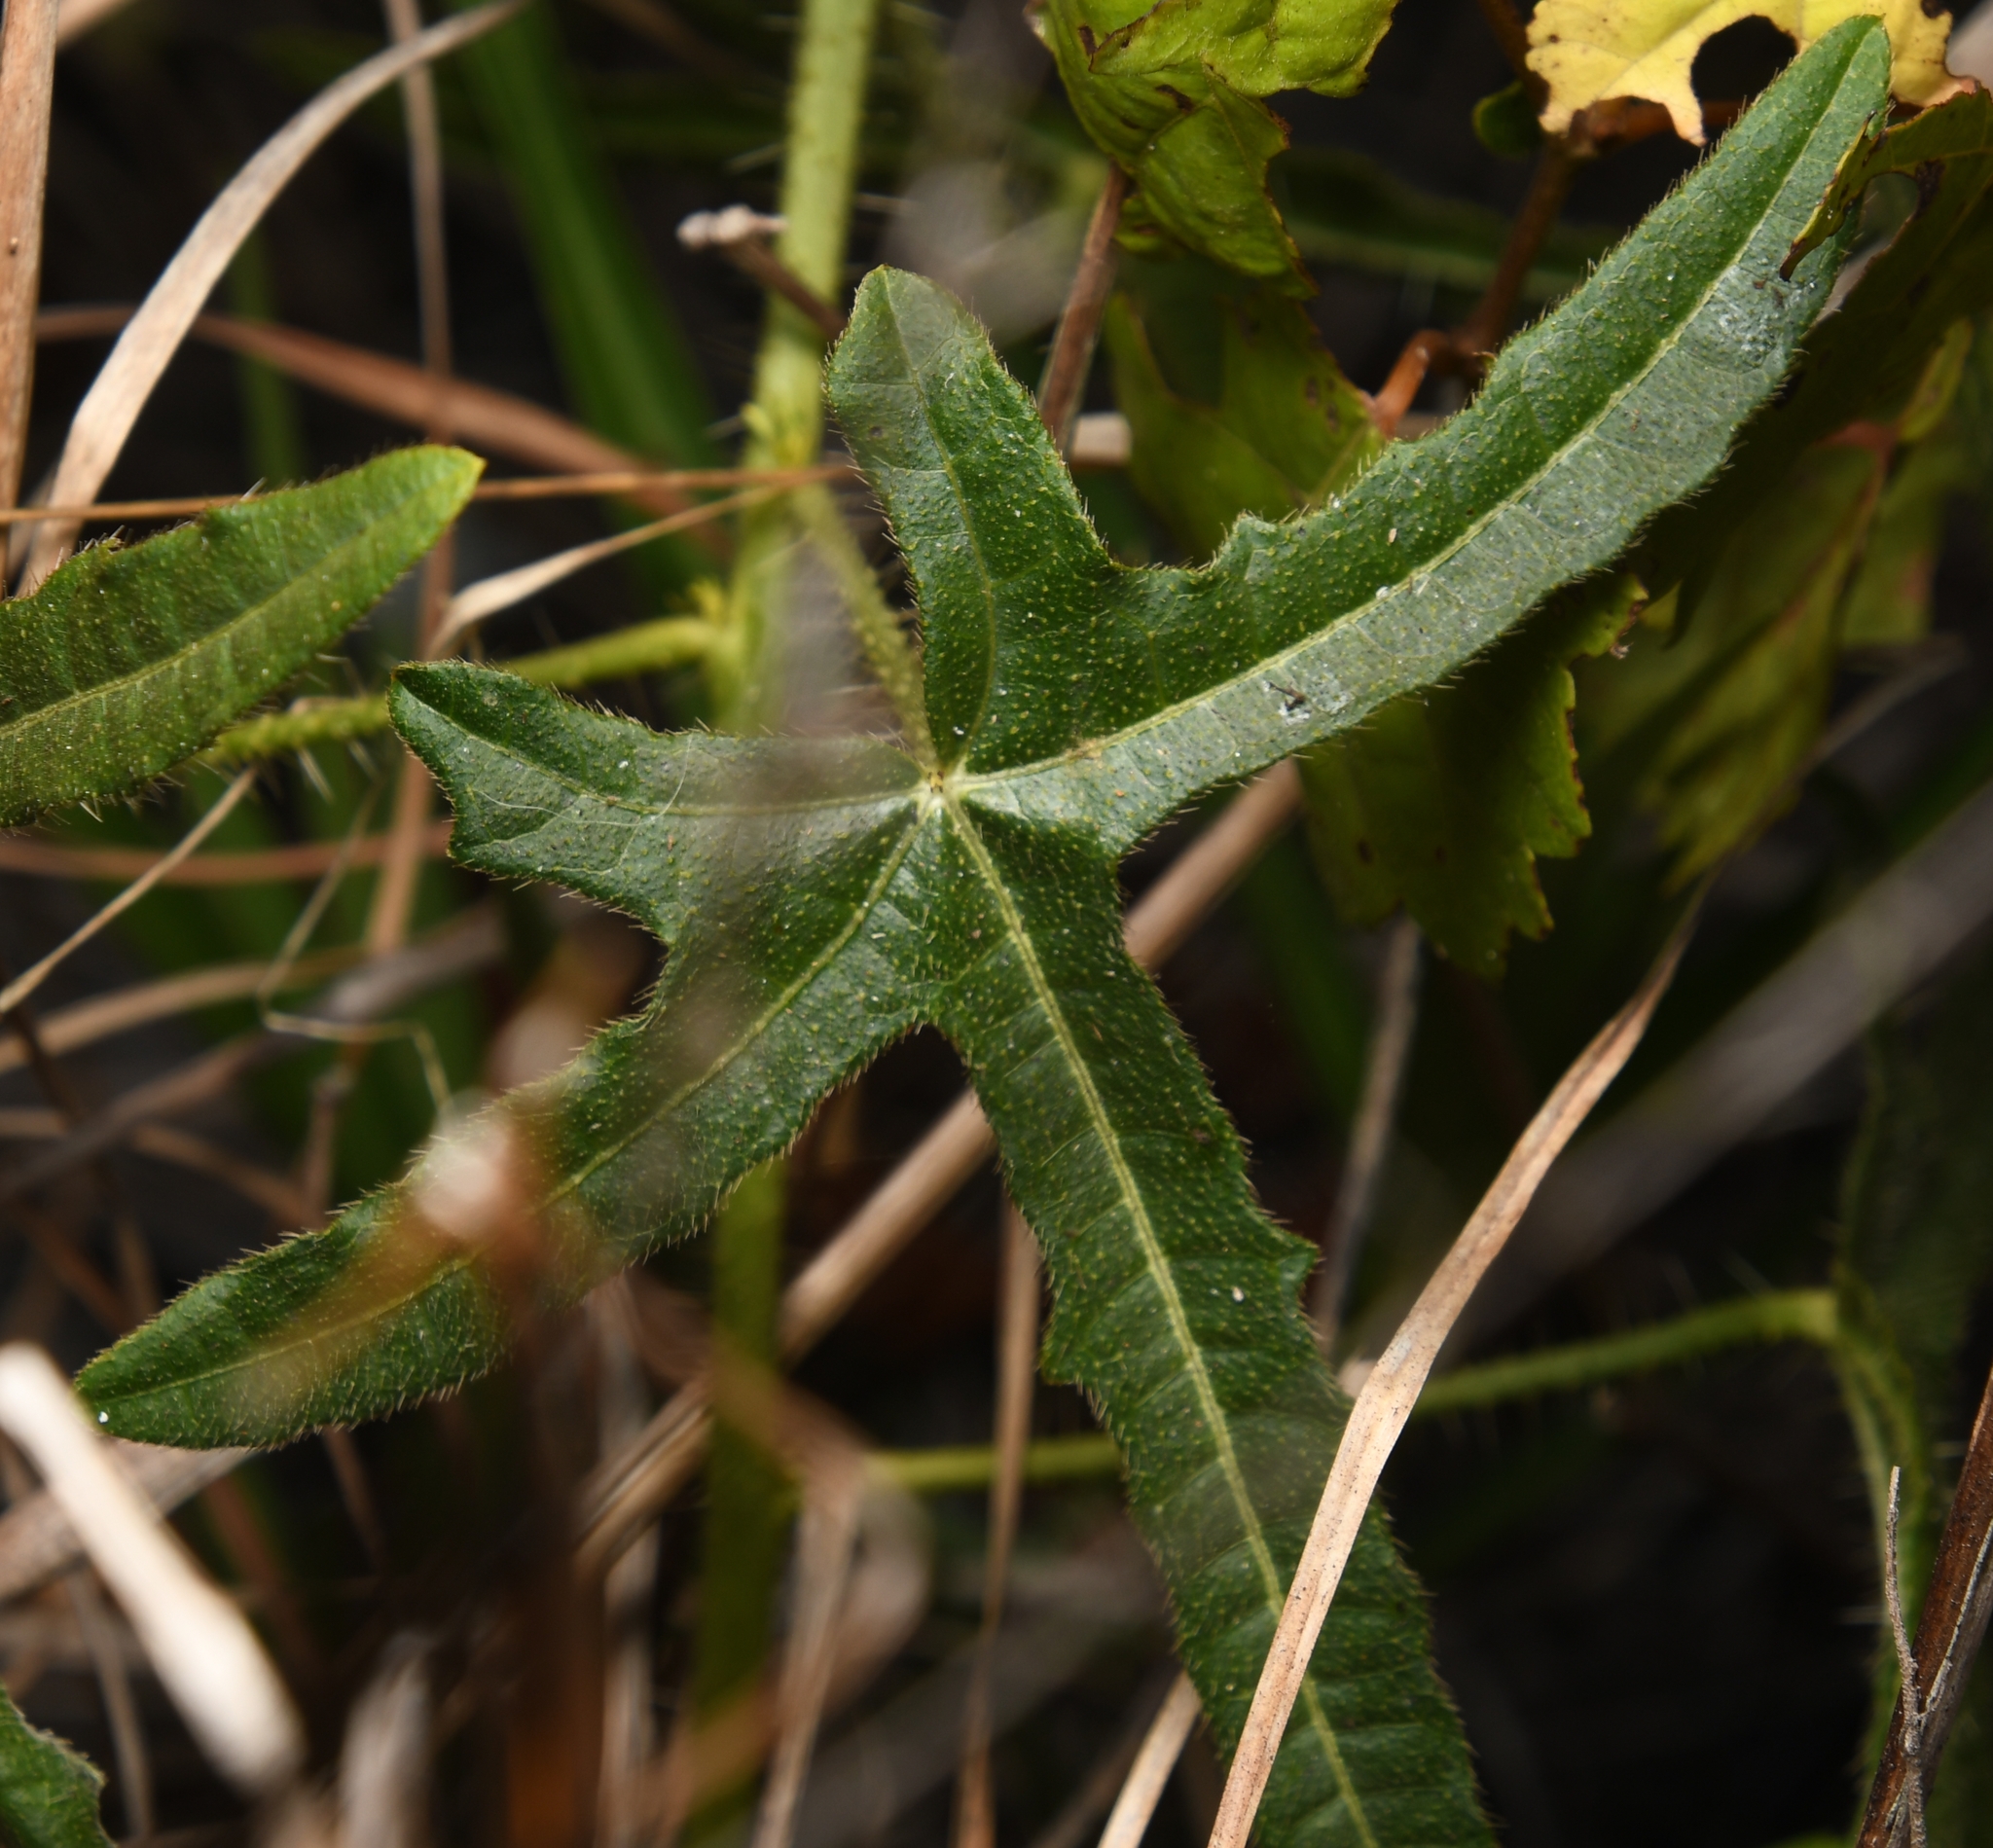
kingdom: Plantae
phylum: Tracheophyta
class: Magnoliopsida
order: Malpighiales
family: Euphorbiaceae
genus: Cnidoscolus
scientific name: Cnidoscolus stimulosus
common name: Bull-nettle
